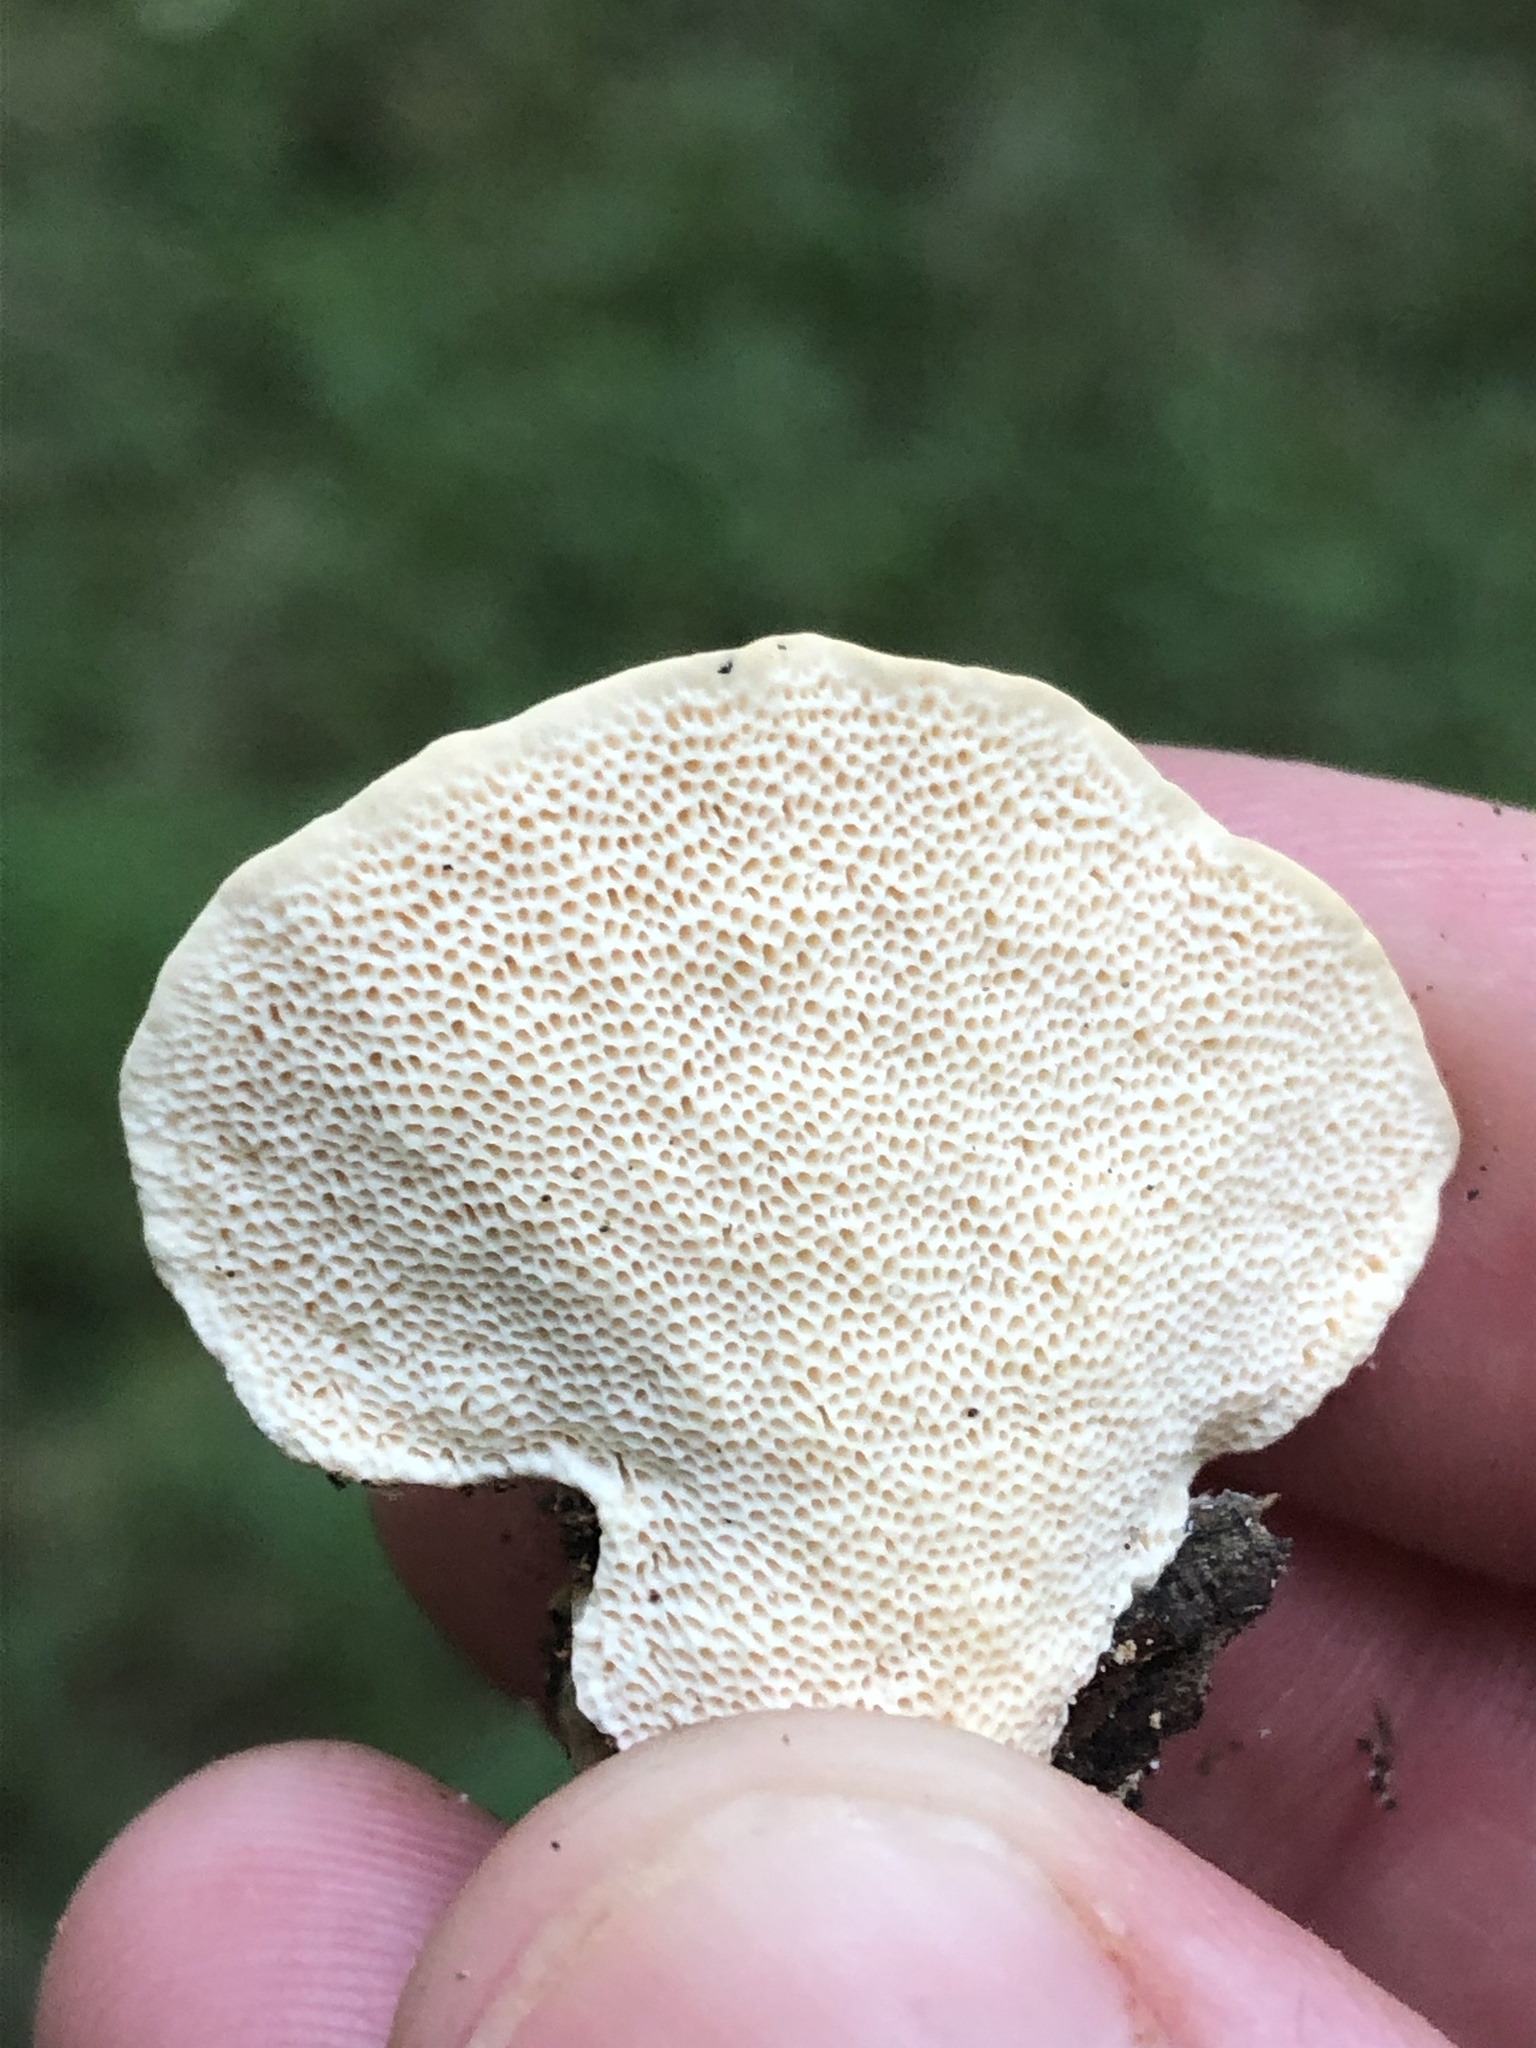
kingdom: Fungi
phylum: Basidiomycota
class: Agaricomycetes
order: Polyporales
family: Polyporaceae
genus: Trametes
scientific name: Trametes lactinea
